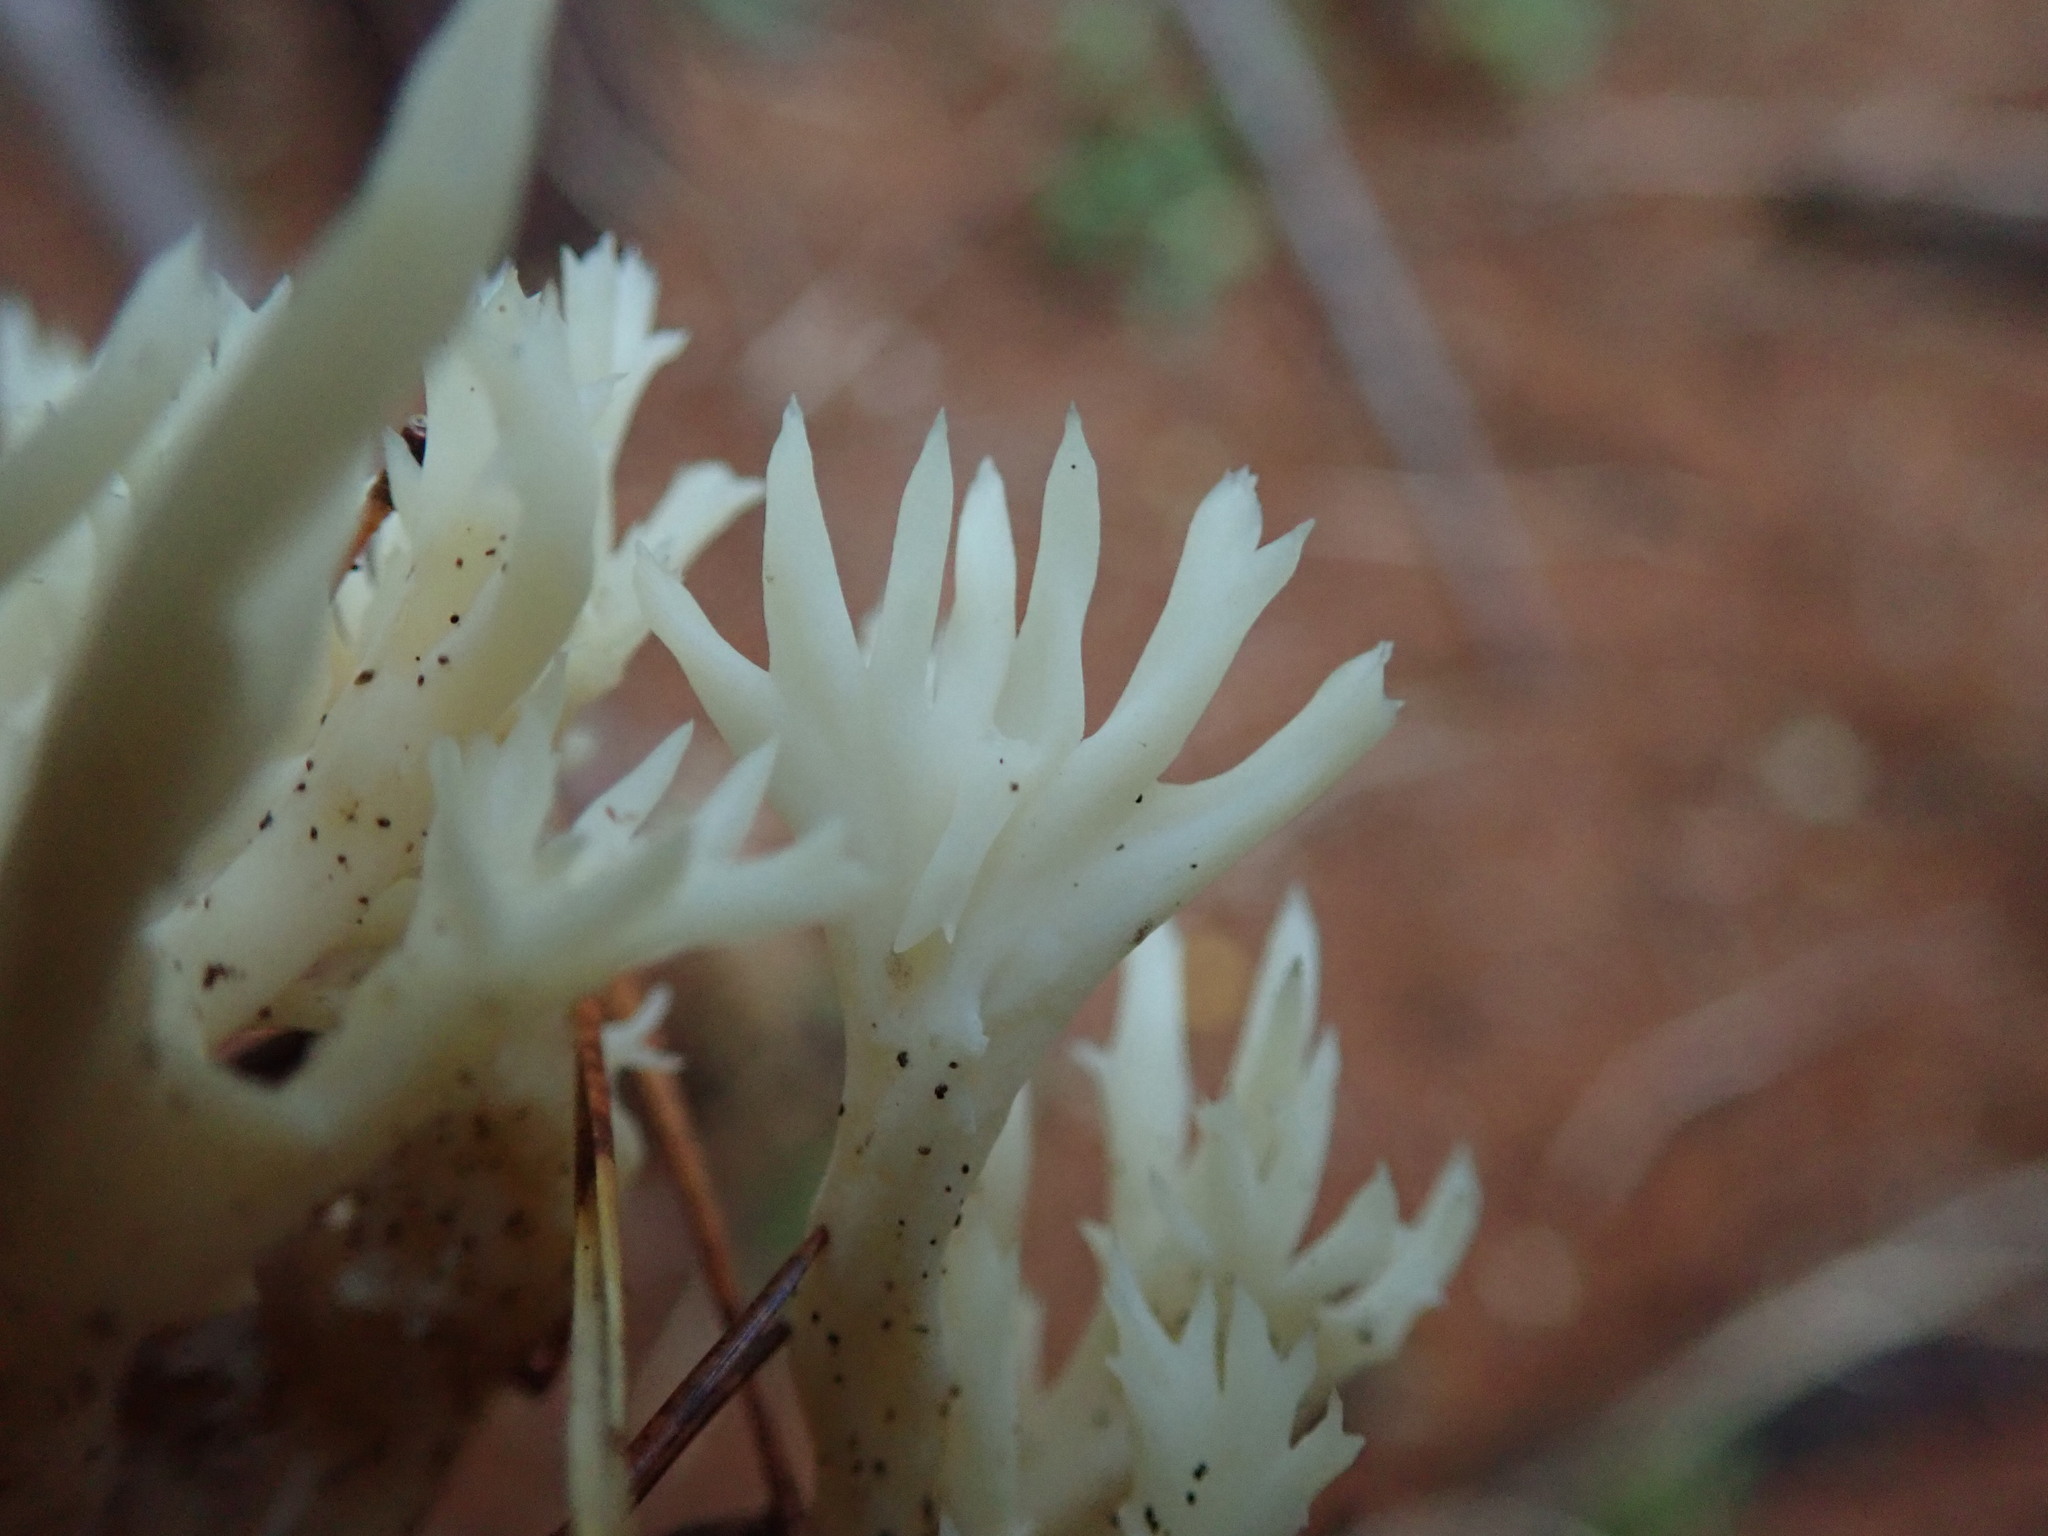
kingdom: Fungi
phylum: Basidiomycota
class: Agaricomycetes
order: Cantharellales
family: Hydnaceae
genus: Clavulina
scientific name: Clavulina coralloides
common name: Crested coral
